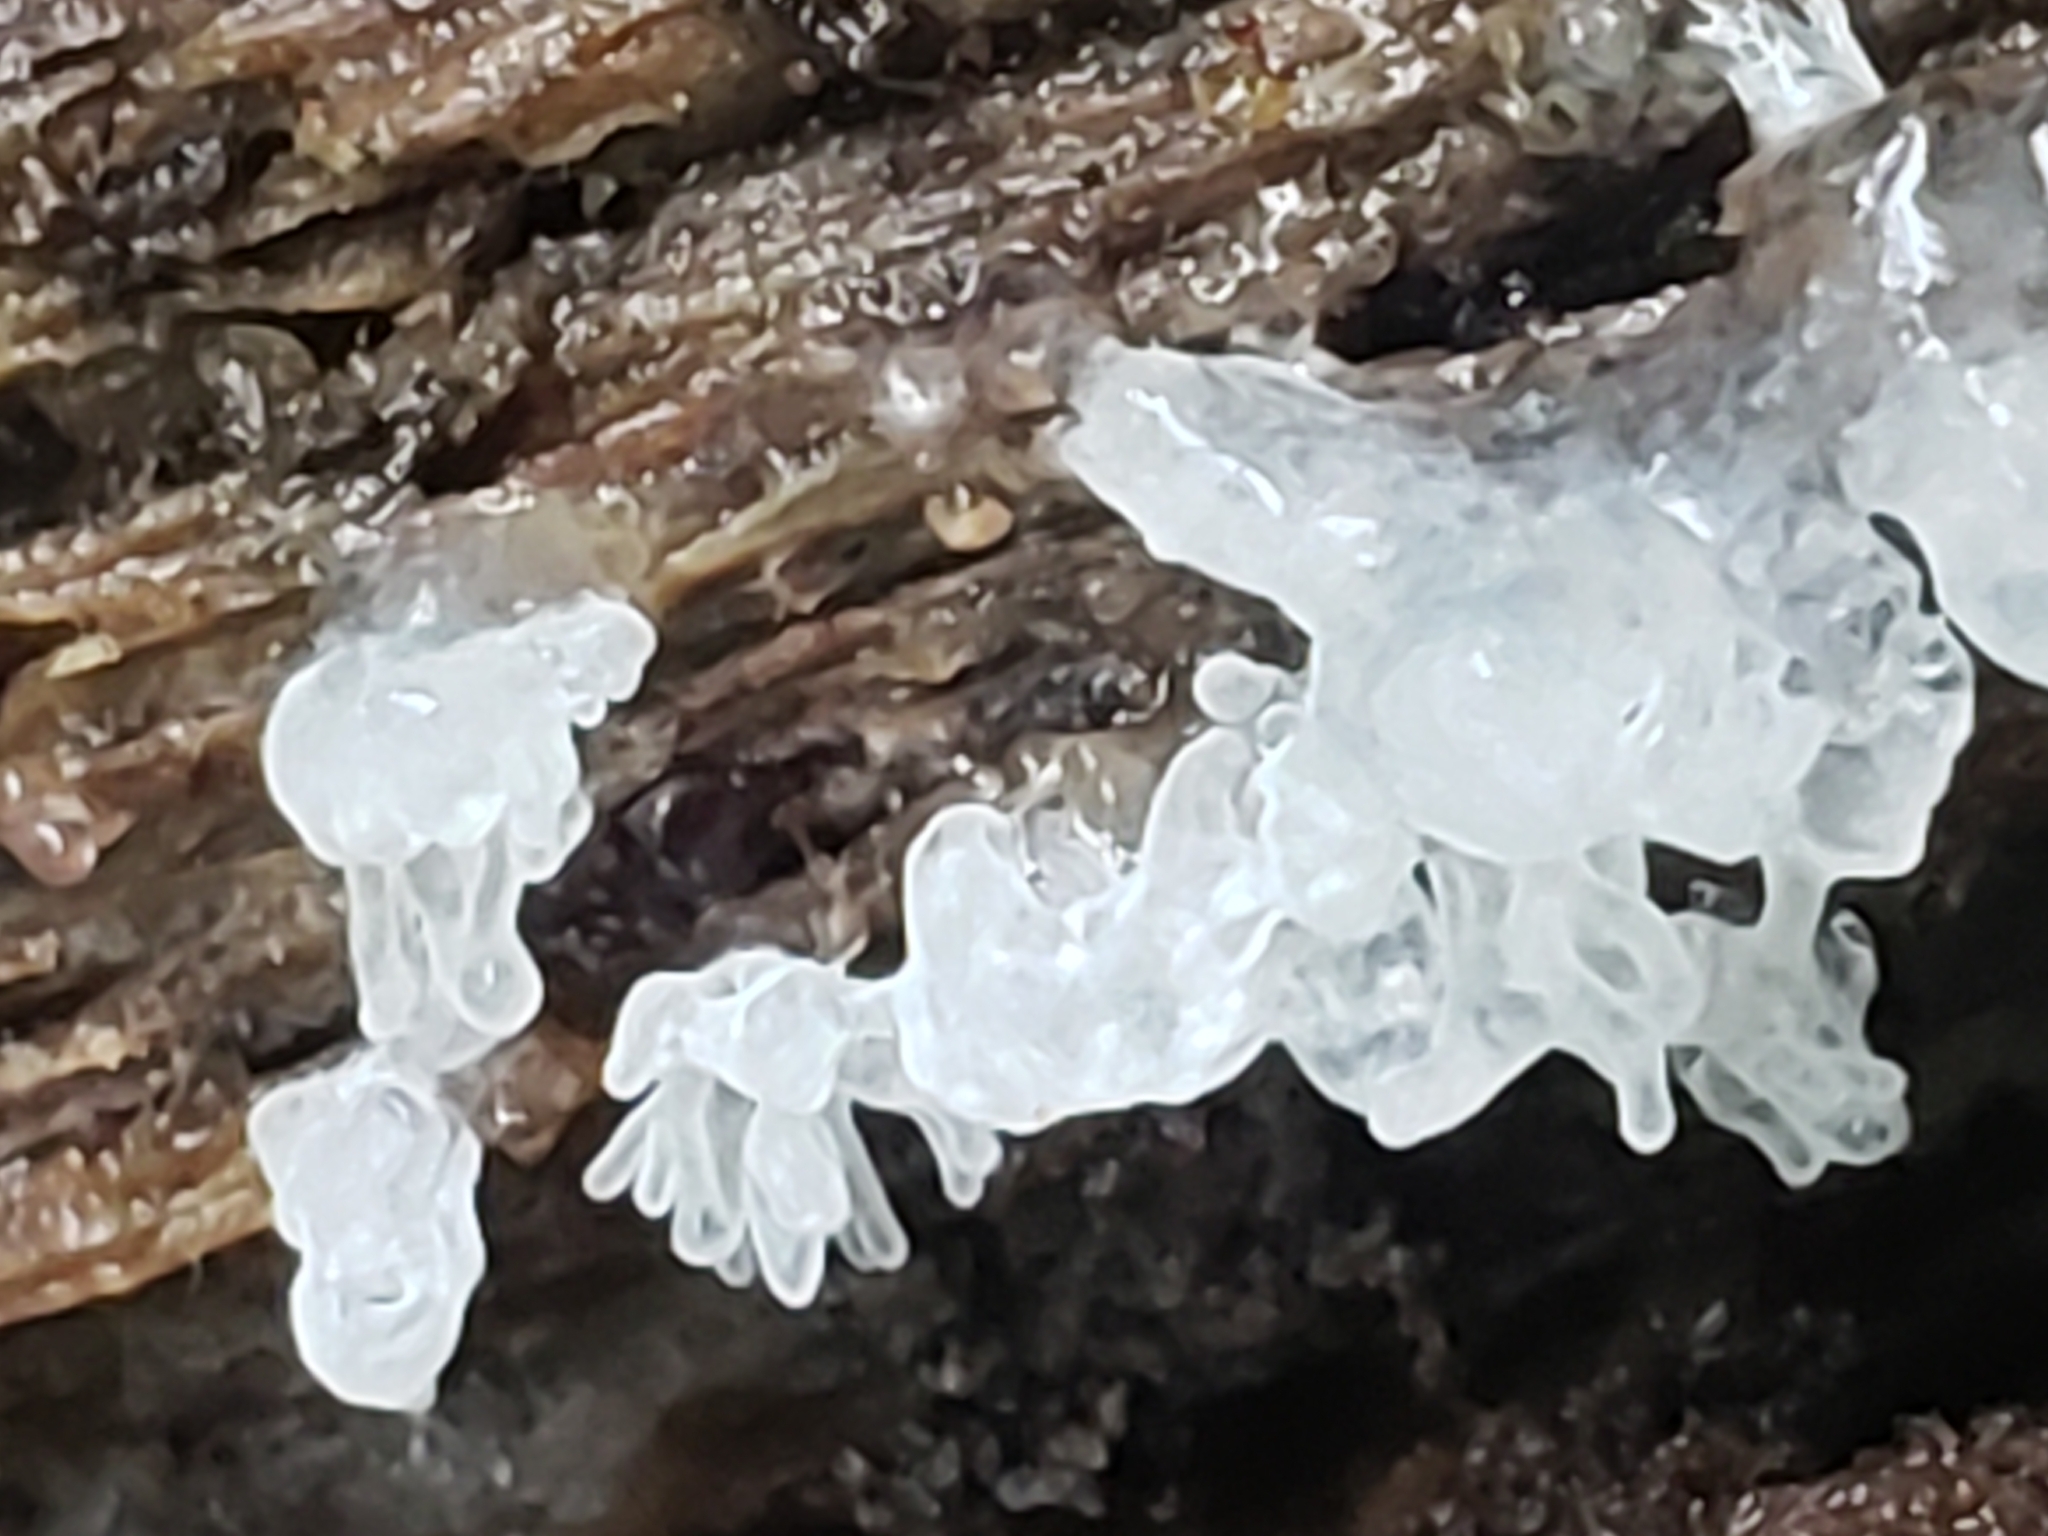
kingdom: Fungi
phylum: Basidiomycota
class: Tremellomycetes
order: Tremellales
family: Tremellaceae
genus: Tremella
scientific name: Tremella fuciformis
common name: Snow fungus
